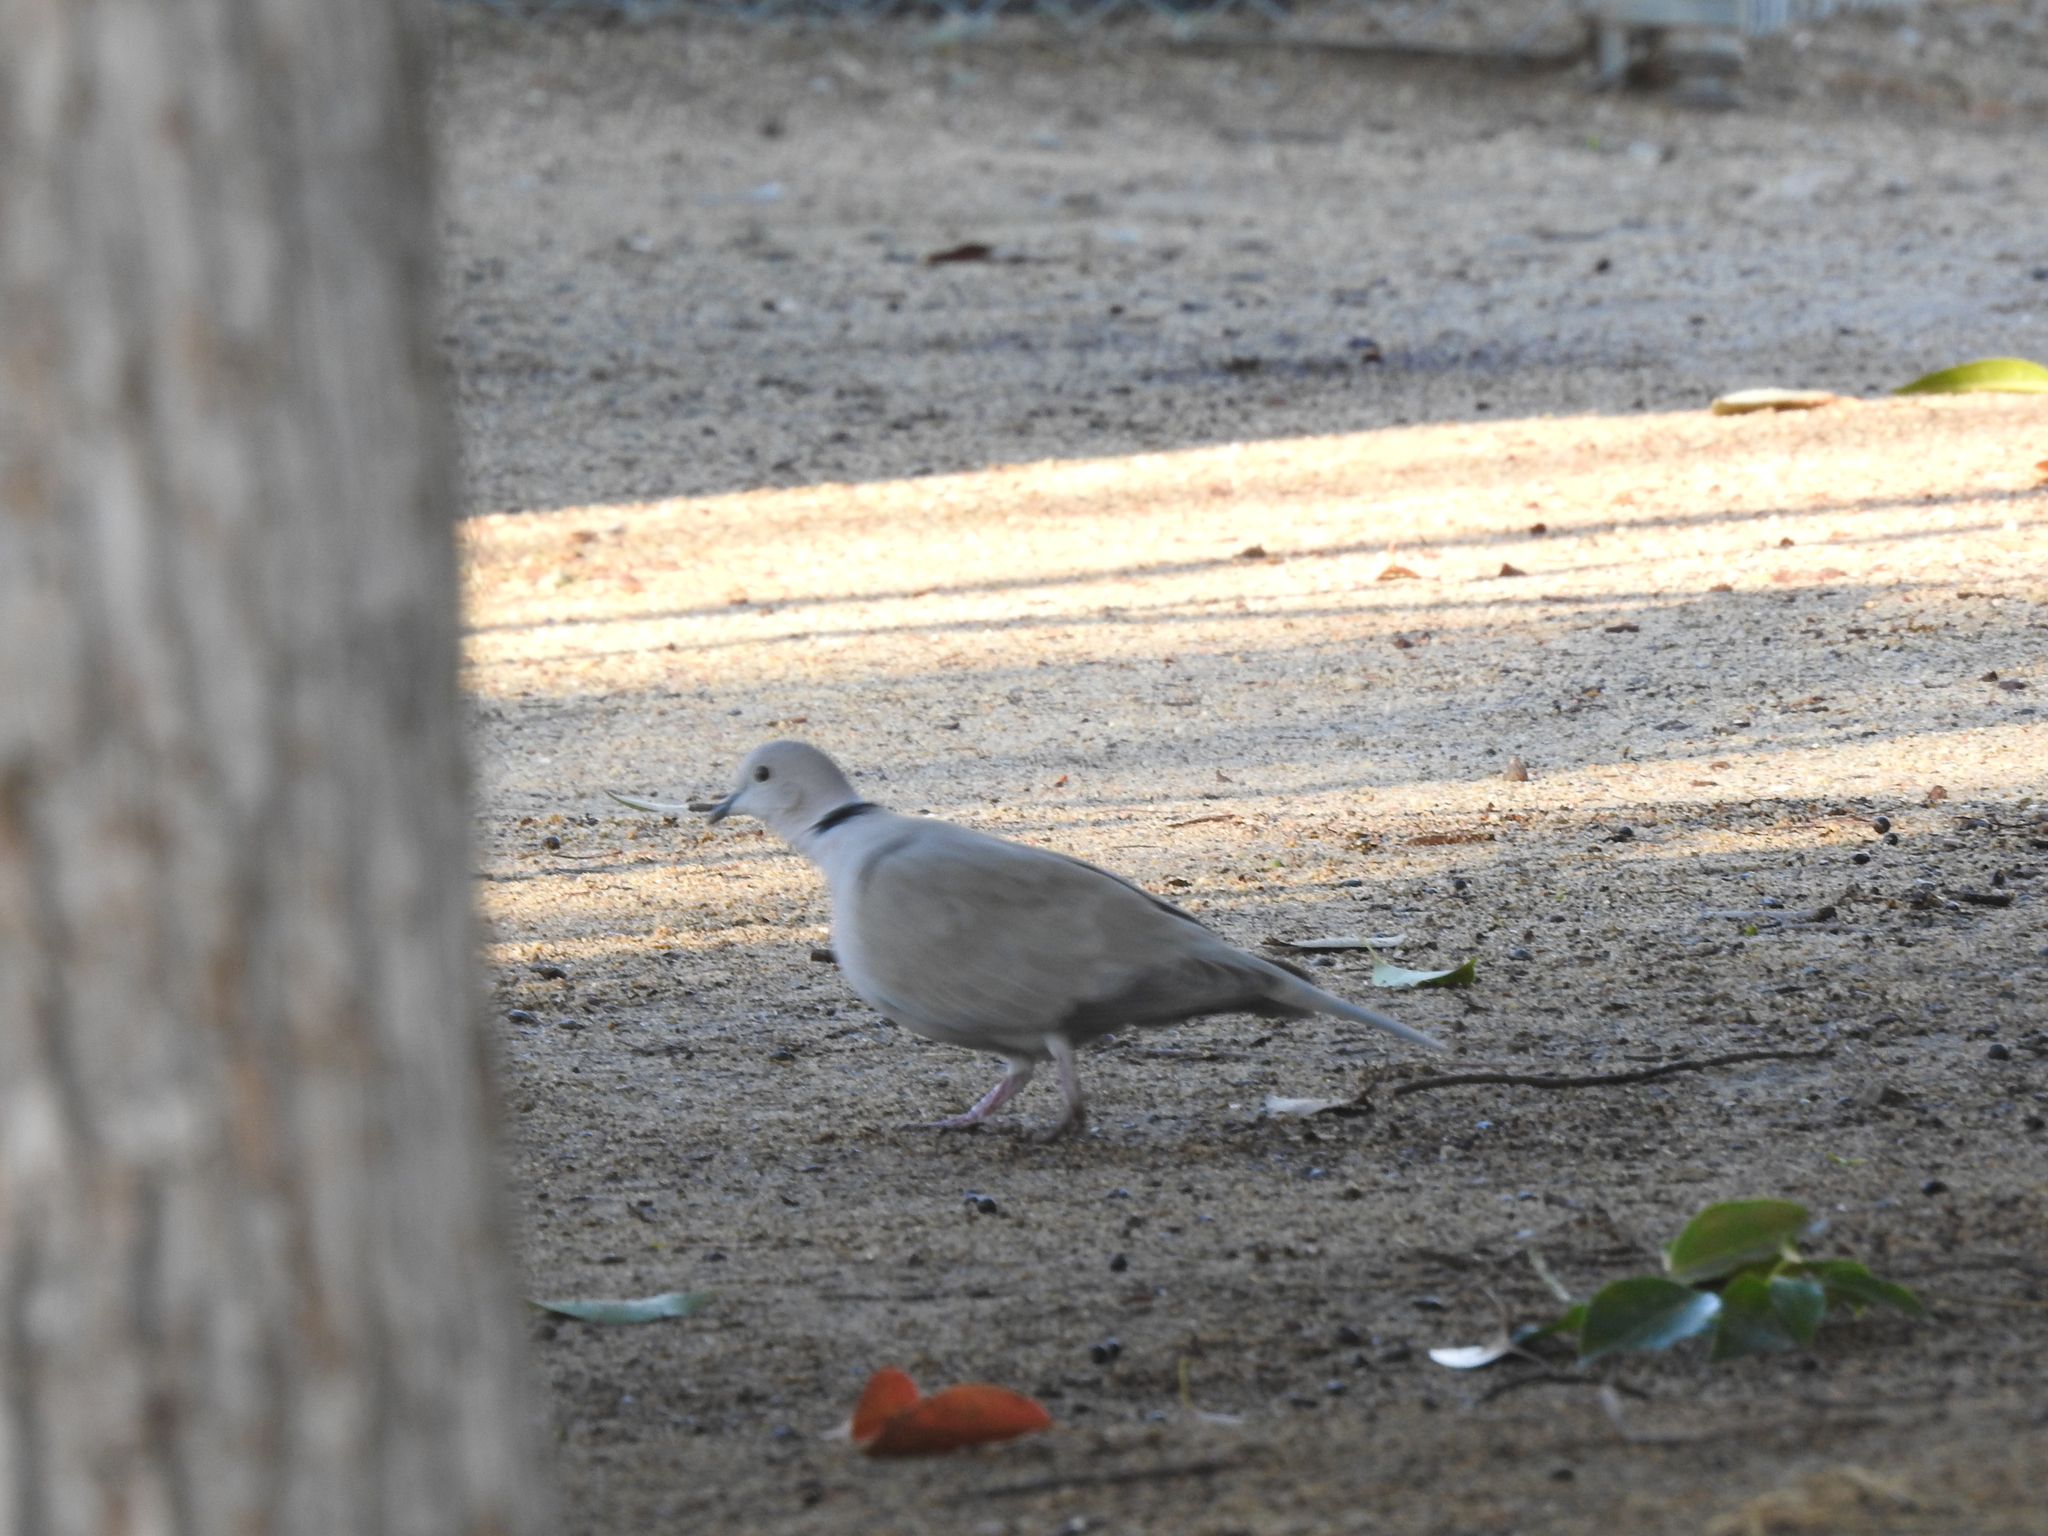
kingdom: Animalia
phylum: Chordata
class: Aves
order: Columbiformes
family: Columbidae
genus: Streptopelia
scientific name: Streptopelia decaocto
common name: Eurasian collared dove
